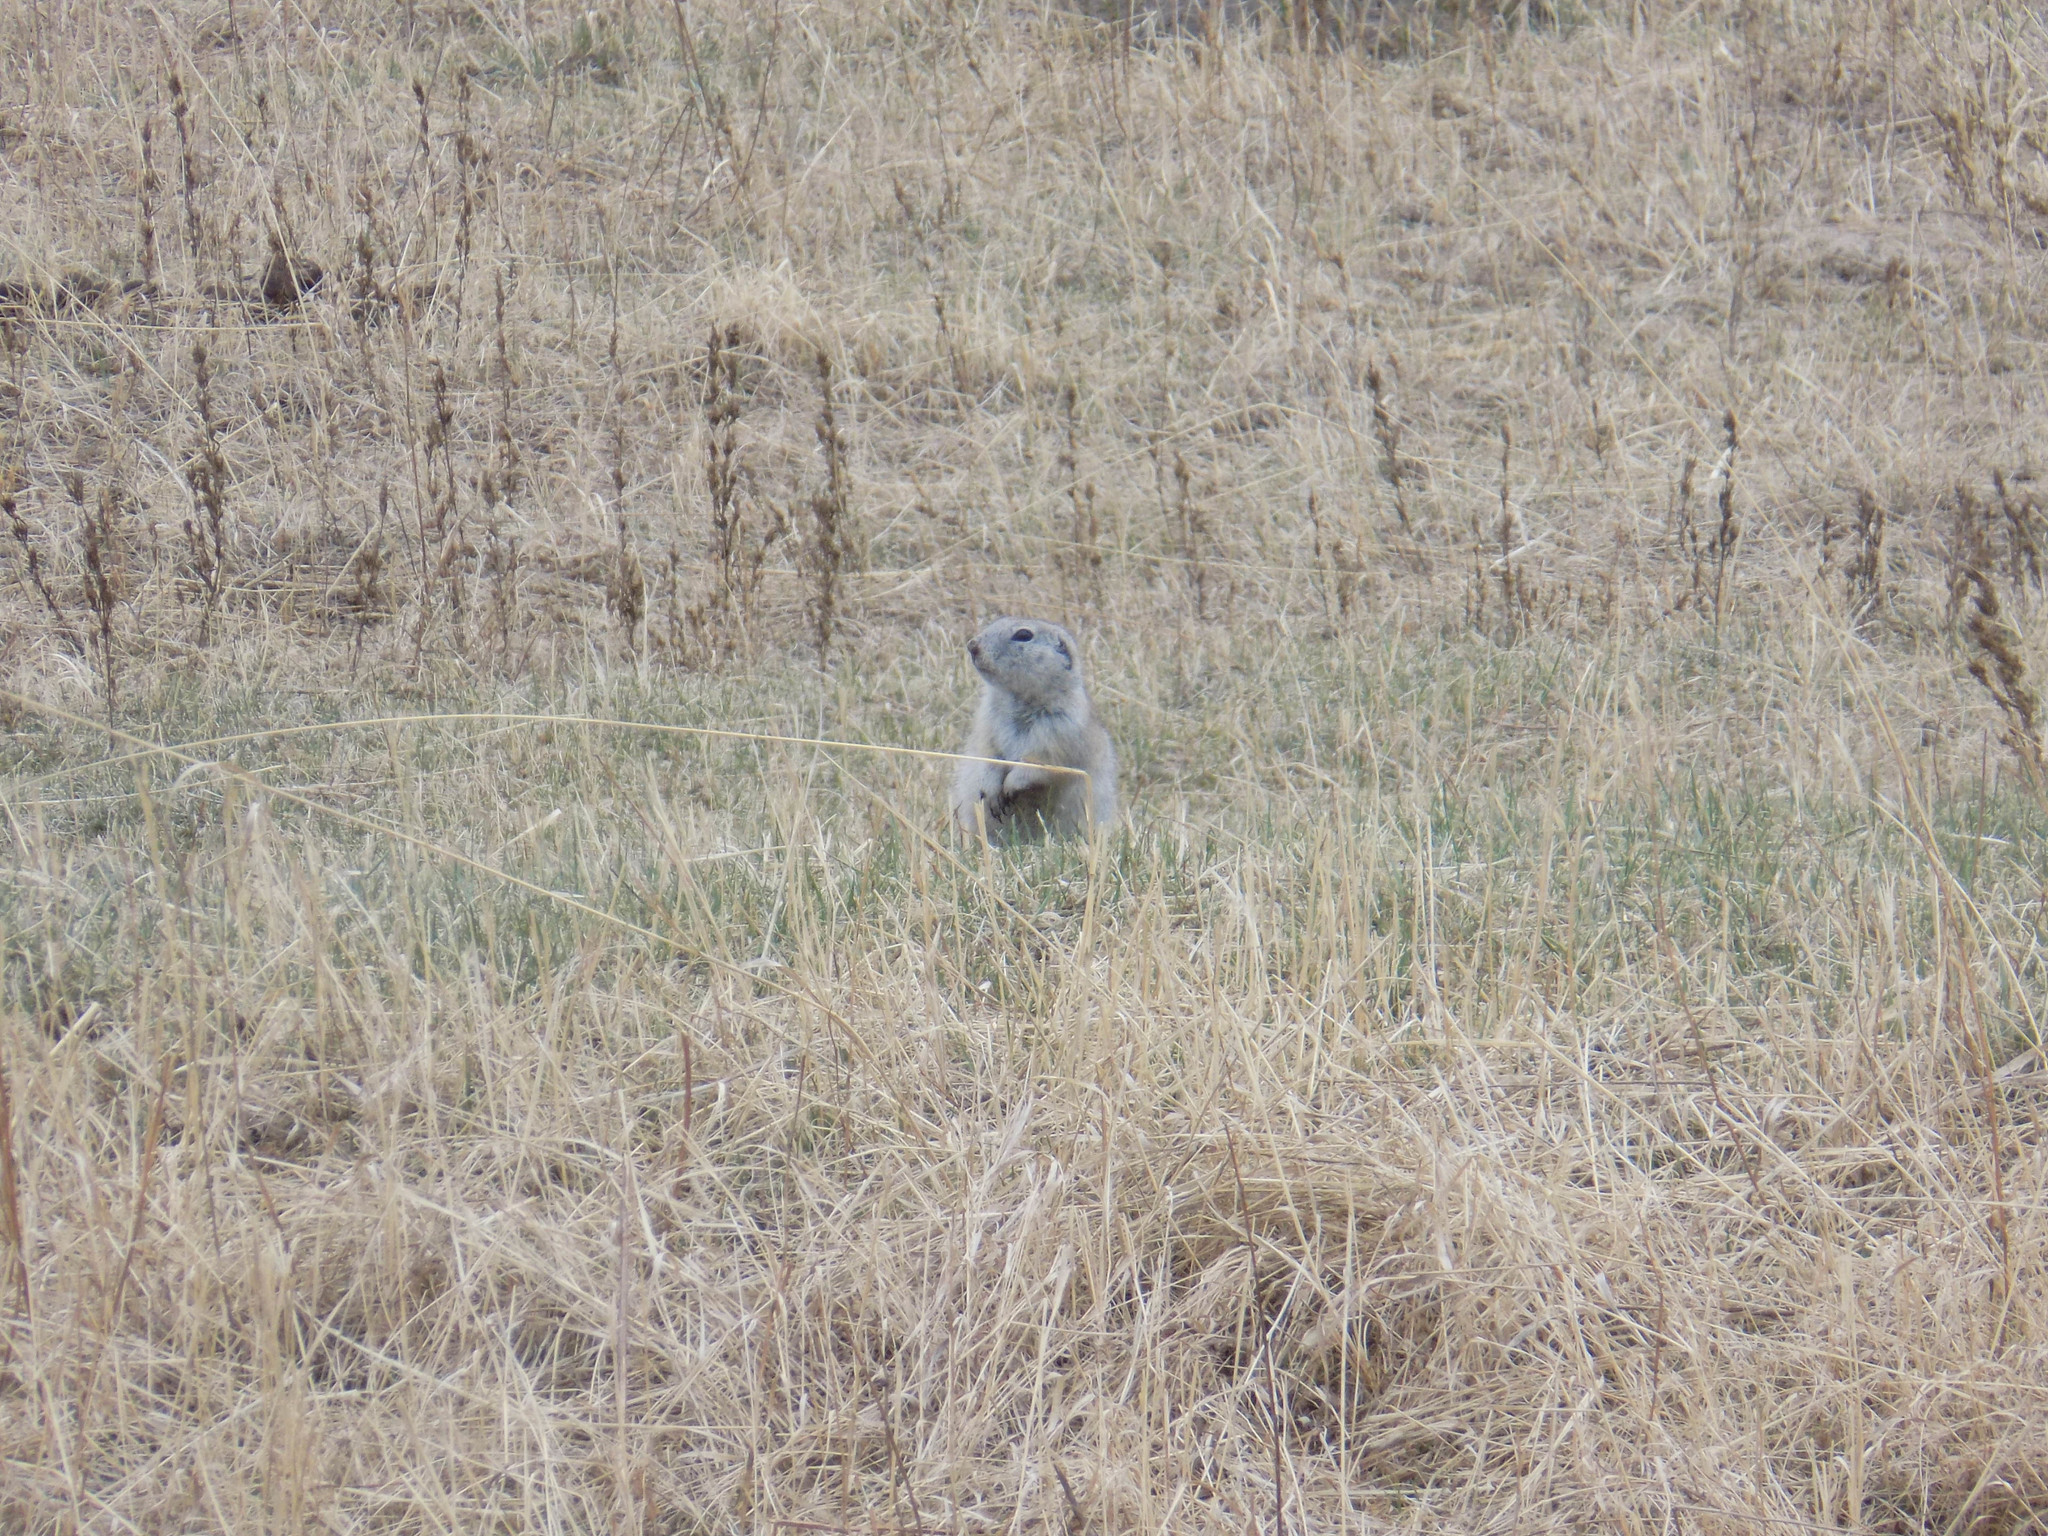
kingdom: Animalia
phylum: Chordata
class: Mammalia
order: Rodentia
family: Sciuridae
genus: Urocitellus
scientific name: Urocitellus undulatus
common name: Long-tailed ground squirrel
